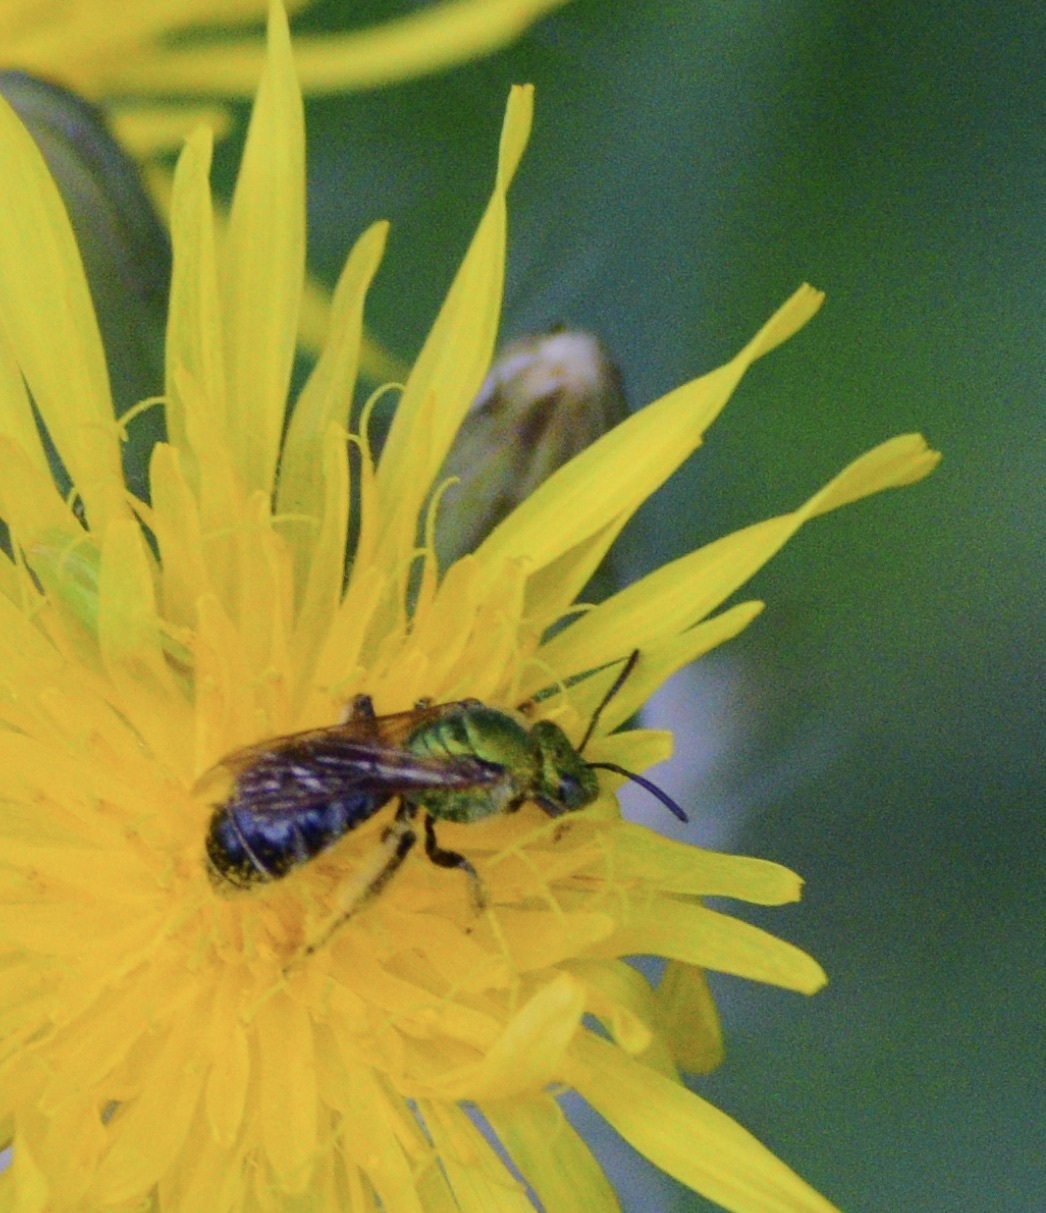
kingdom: Animalia
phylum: Arthropoda
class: Insecta
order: Hymenoptera
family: Halictidae
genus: Agapostemon
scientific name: Agapostemon virescens
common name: Bicolored striped sweat bee
